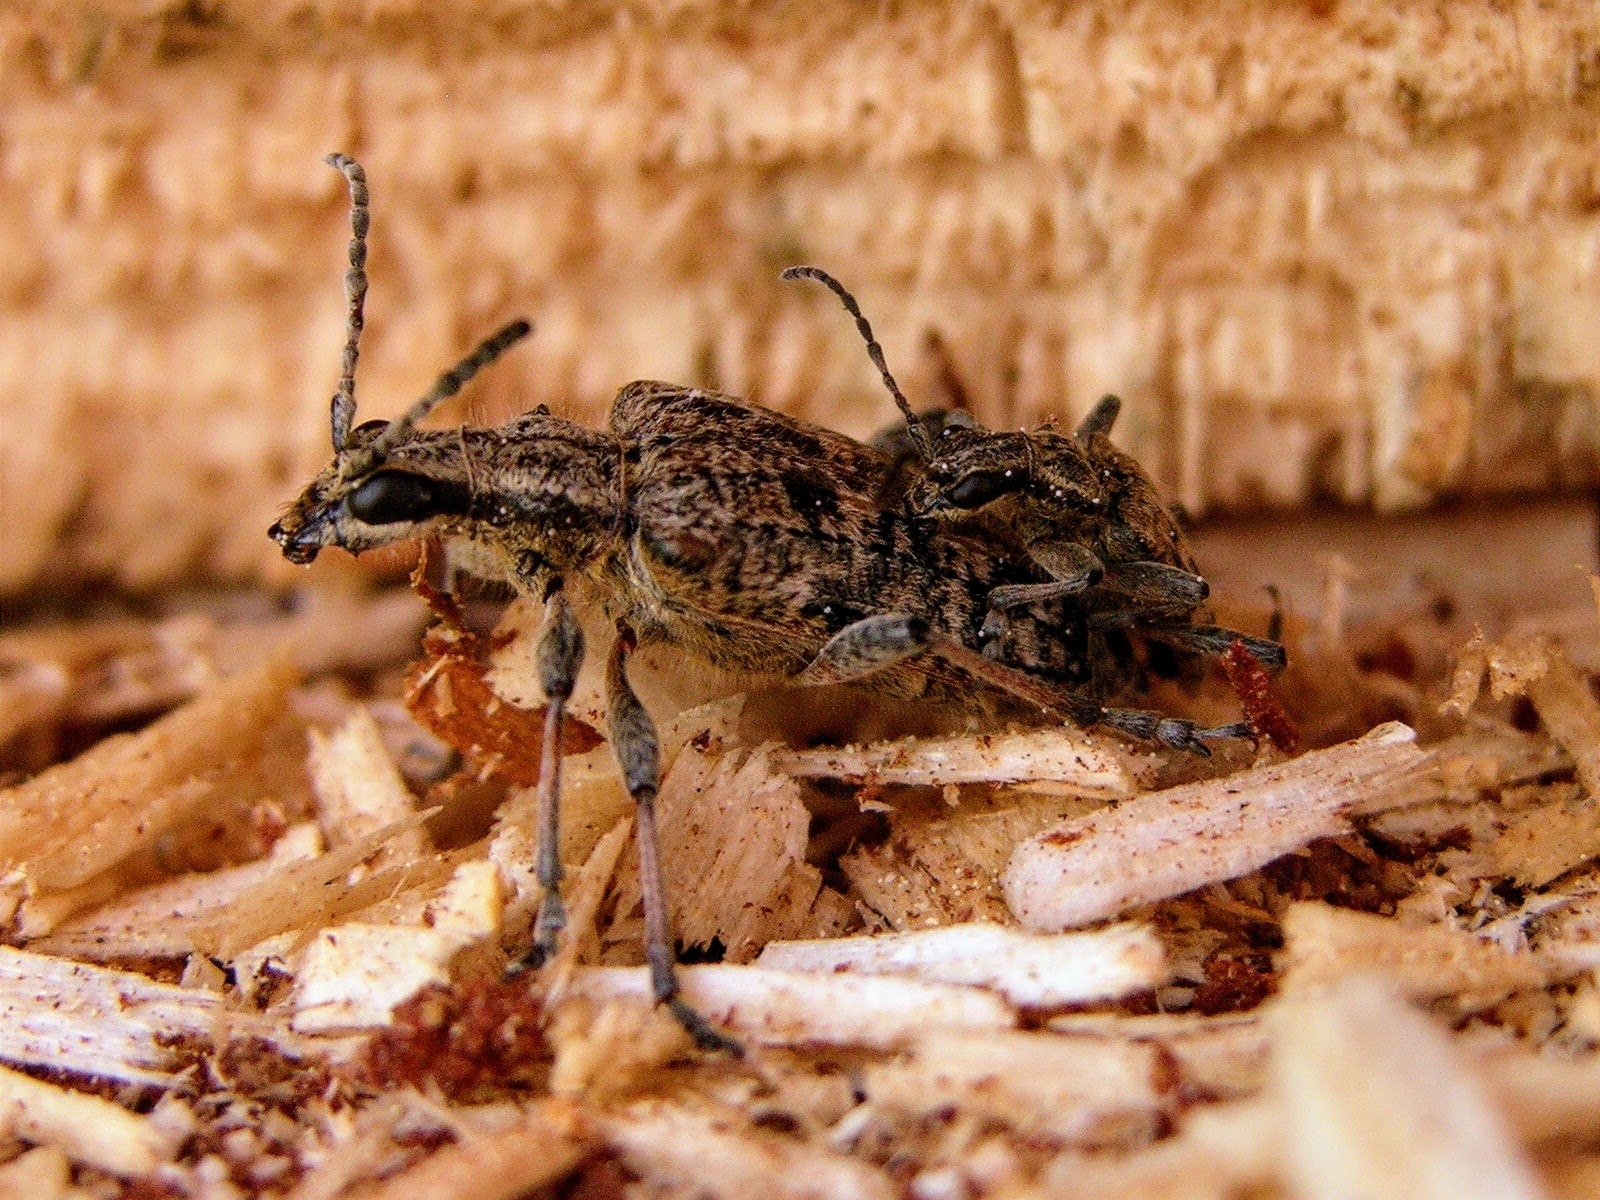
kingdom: Animalia
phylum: Arthropoda
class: Insecta
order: Coleoptera
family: Cerambycidae
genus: Rhagium
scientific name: Rhagium inquisitor
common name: Ribbed pine borer
